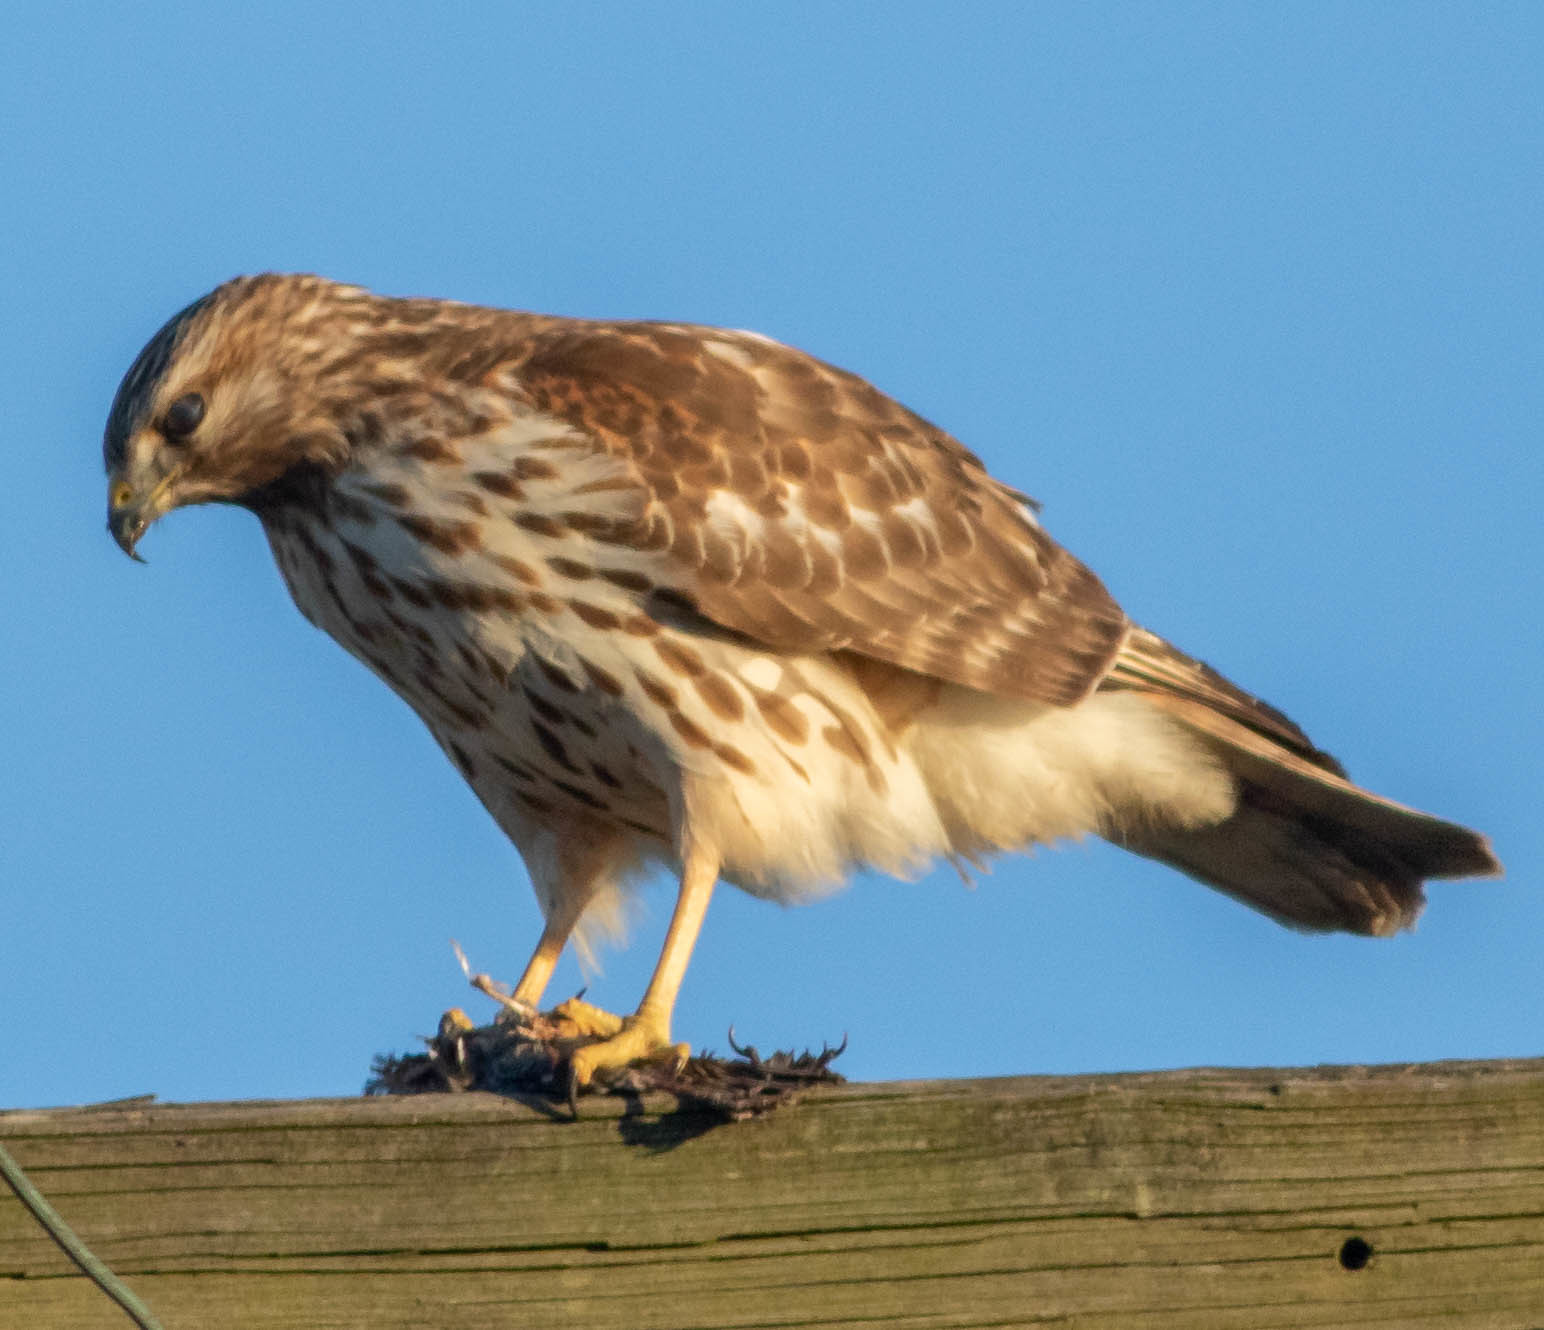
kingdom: Animalia
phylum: Chordata
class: Aves
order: Accipitriformes
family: Accipitridae
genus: Buteo
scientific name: Buteo lineatus
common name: Red-shouldered hawk
